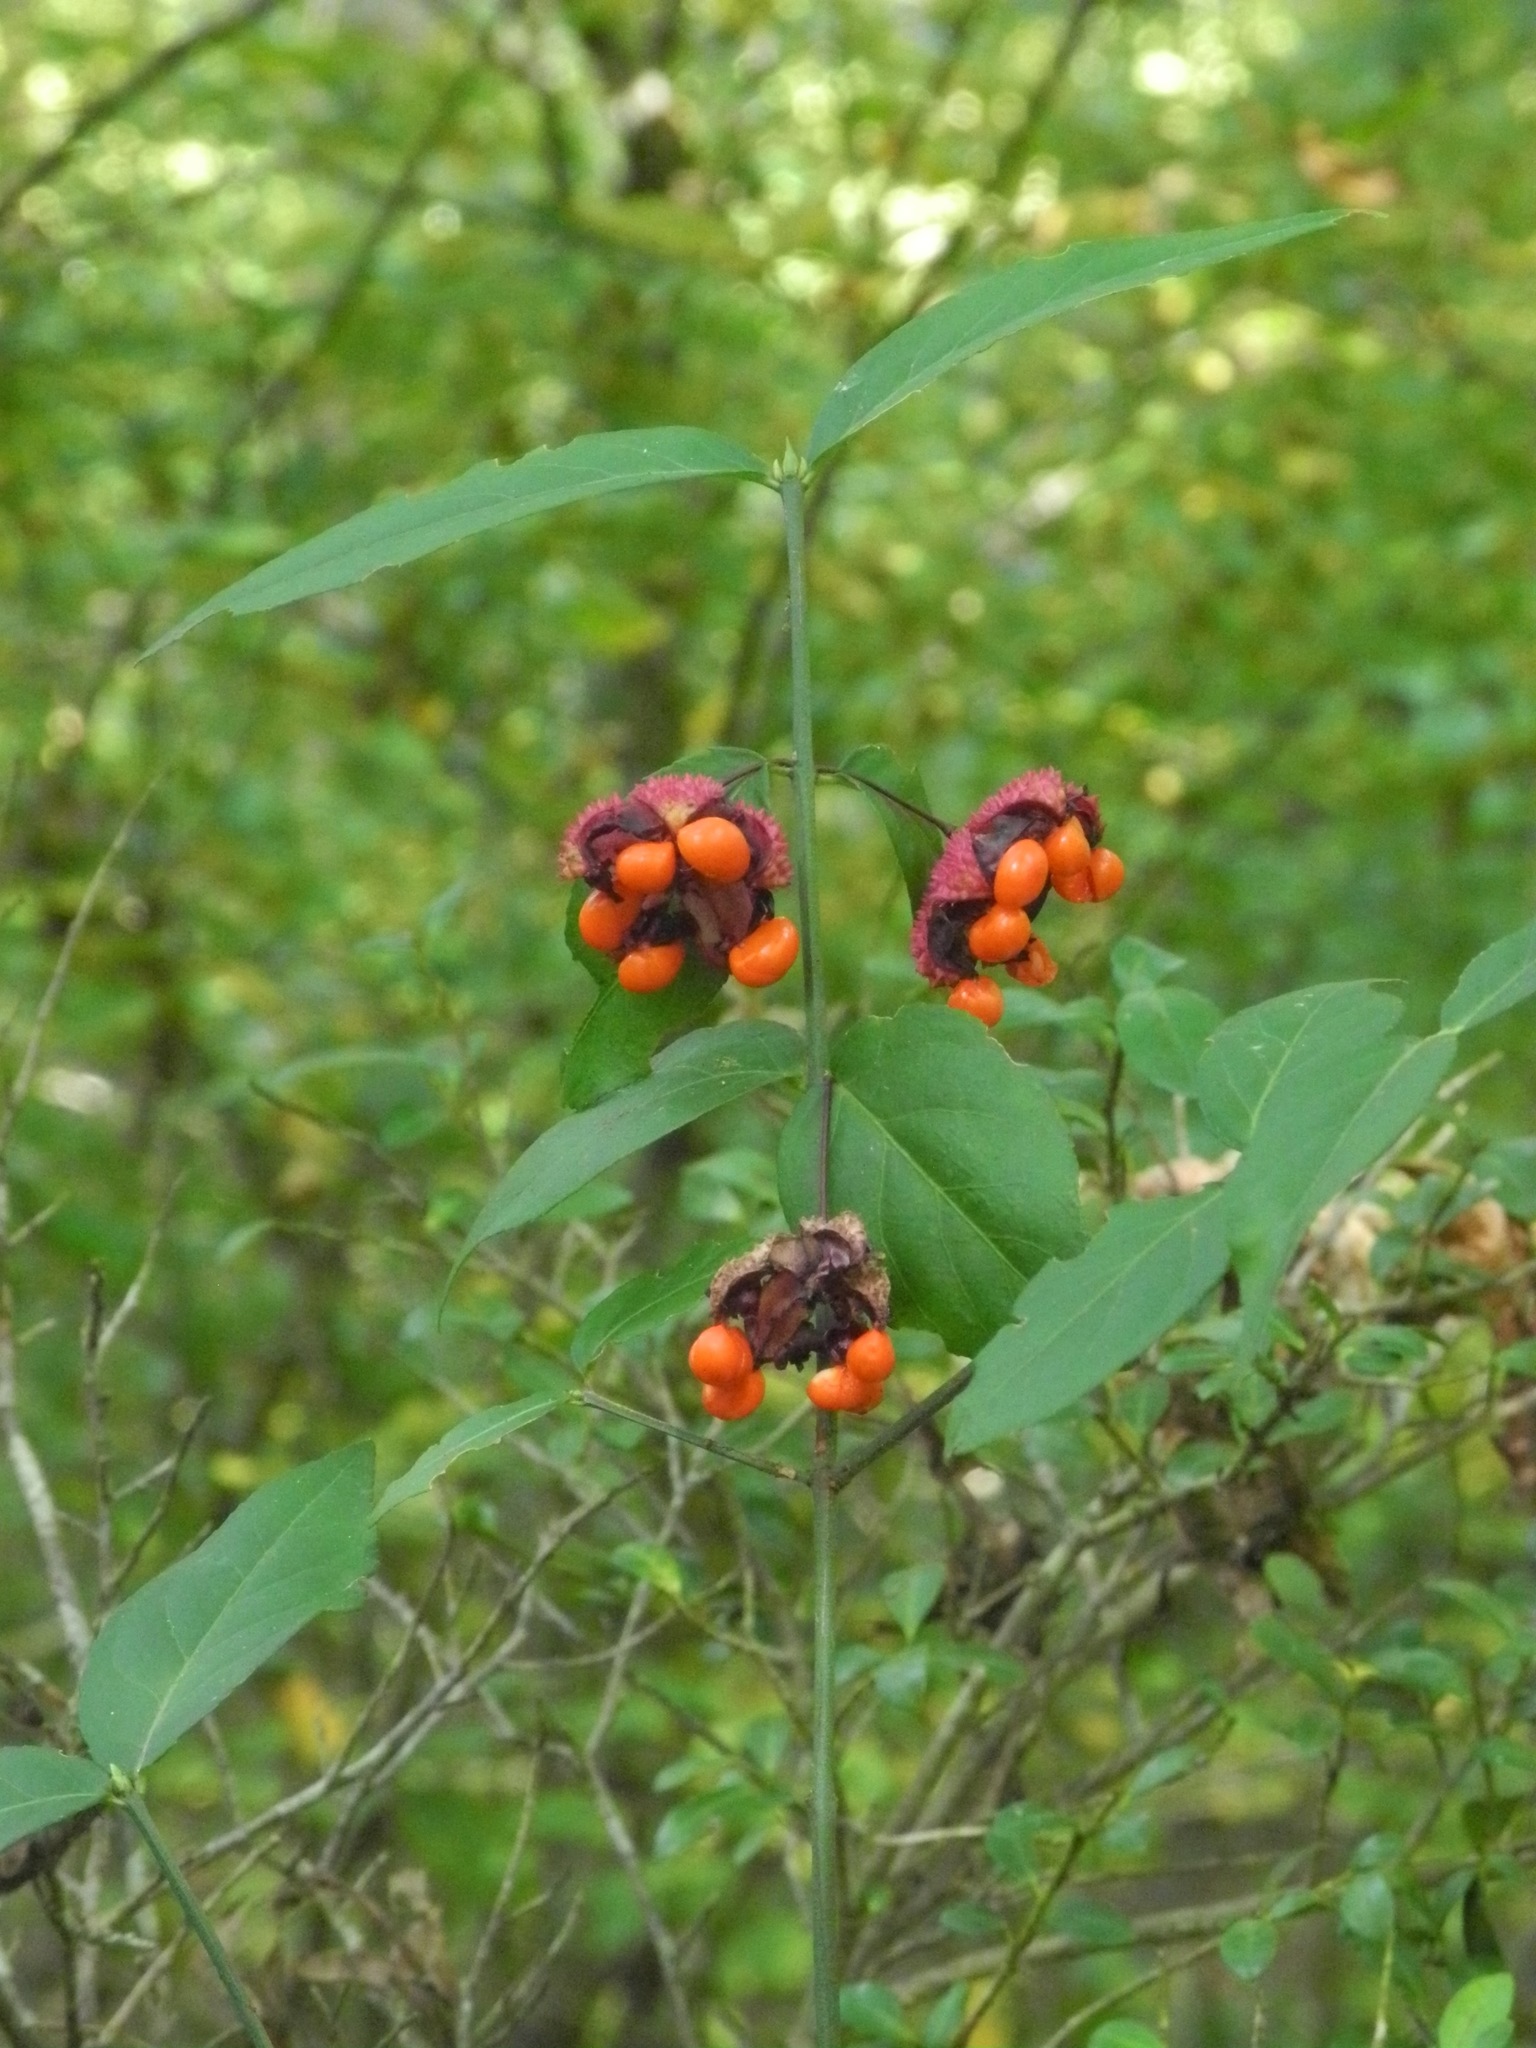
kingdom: Plantae
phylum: Tracheophyta
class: Magnoliopsida
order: Celastrales
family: Celastraceae
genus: Euonymus
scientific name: Euonymus americanus
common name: Bursting-heart
